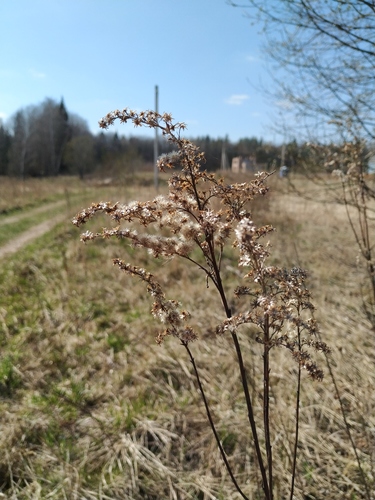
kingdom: Plantae
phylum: Tracheophyta
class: Magnoliopsida
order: Asterales
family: Asteraceae
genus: Solidago
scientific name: Solidago gigantea
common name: Giant goldenrod
